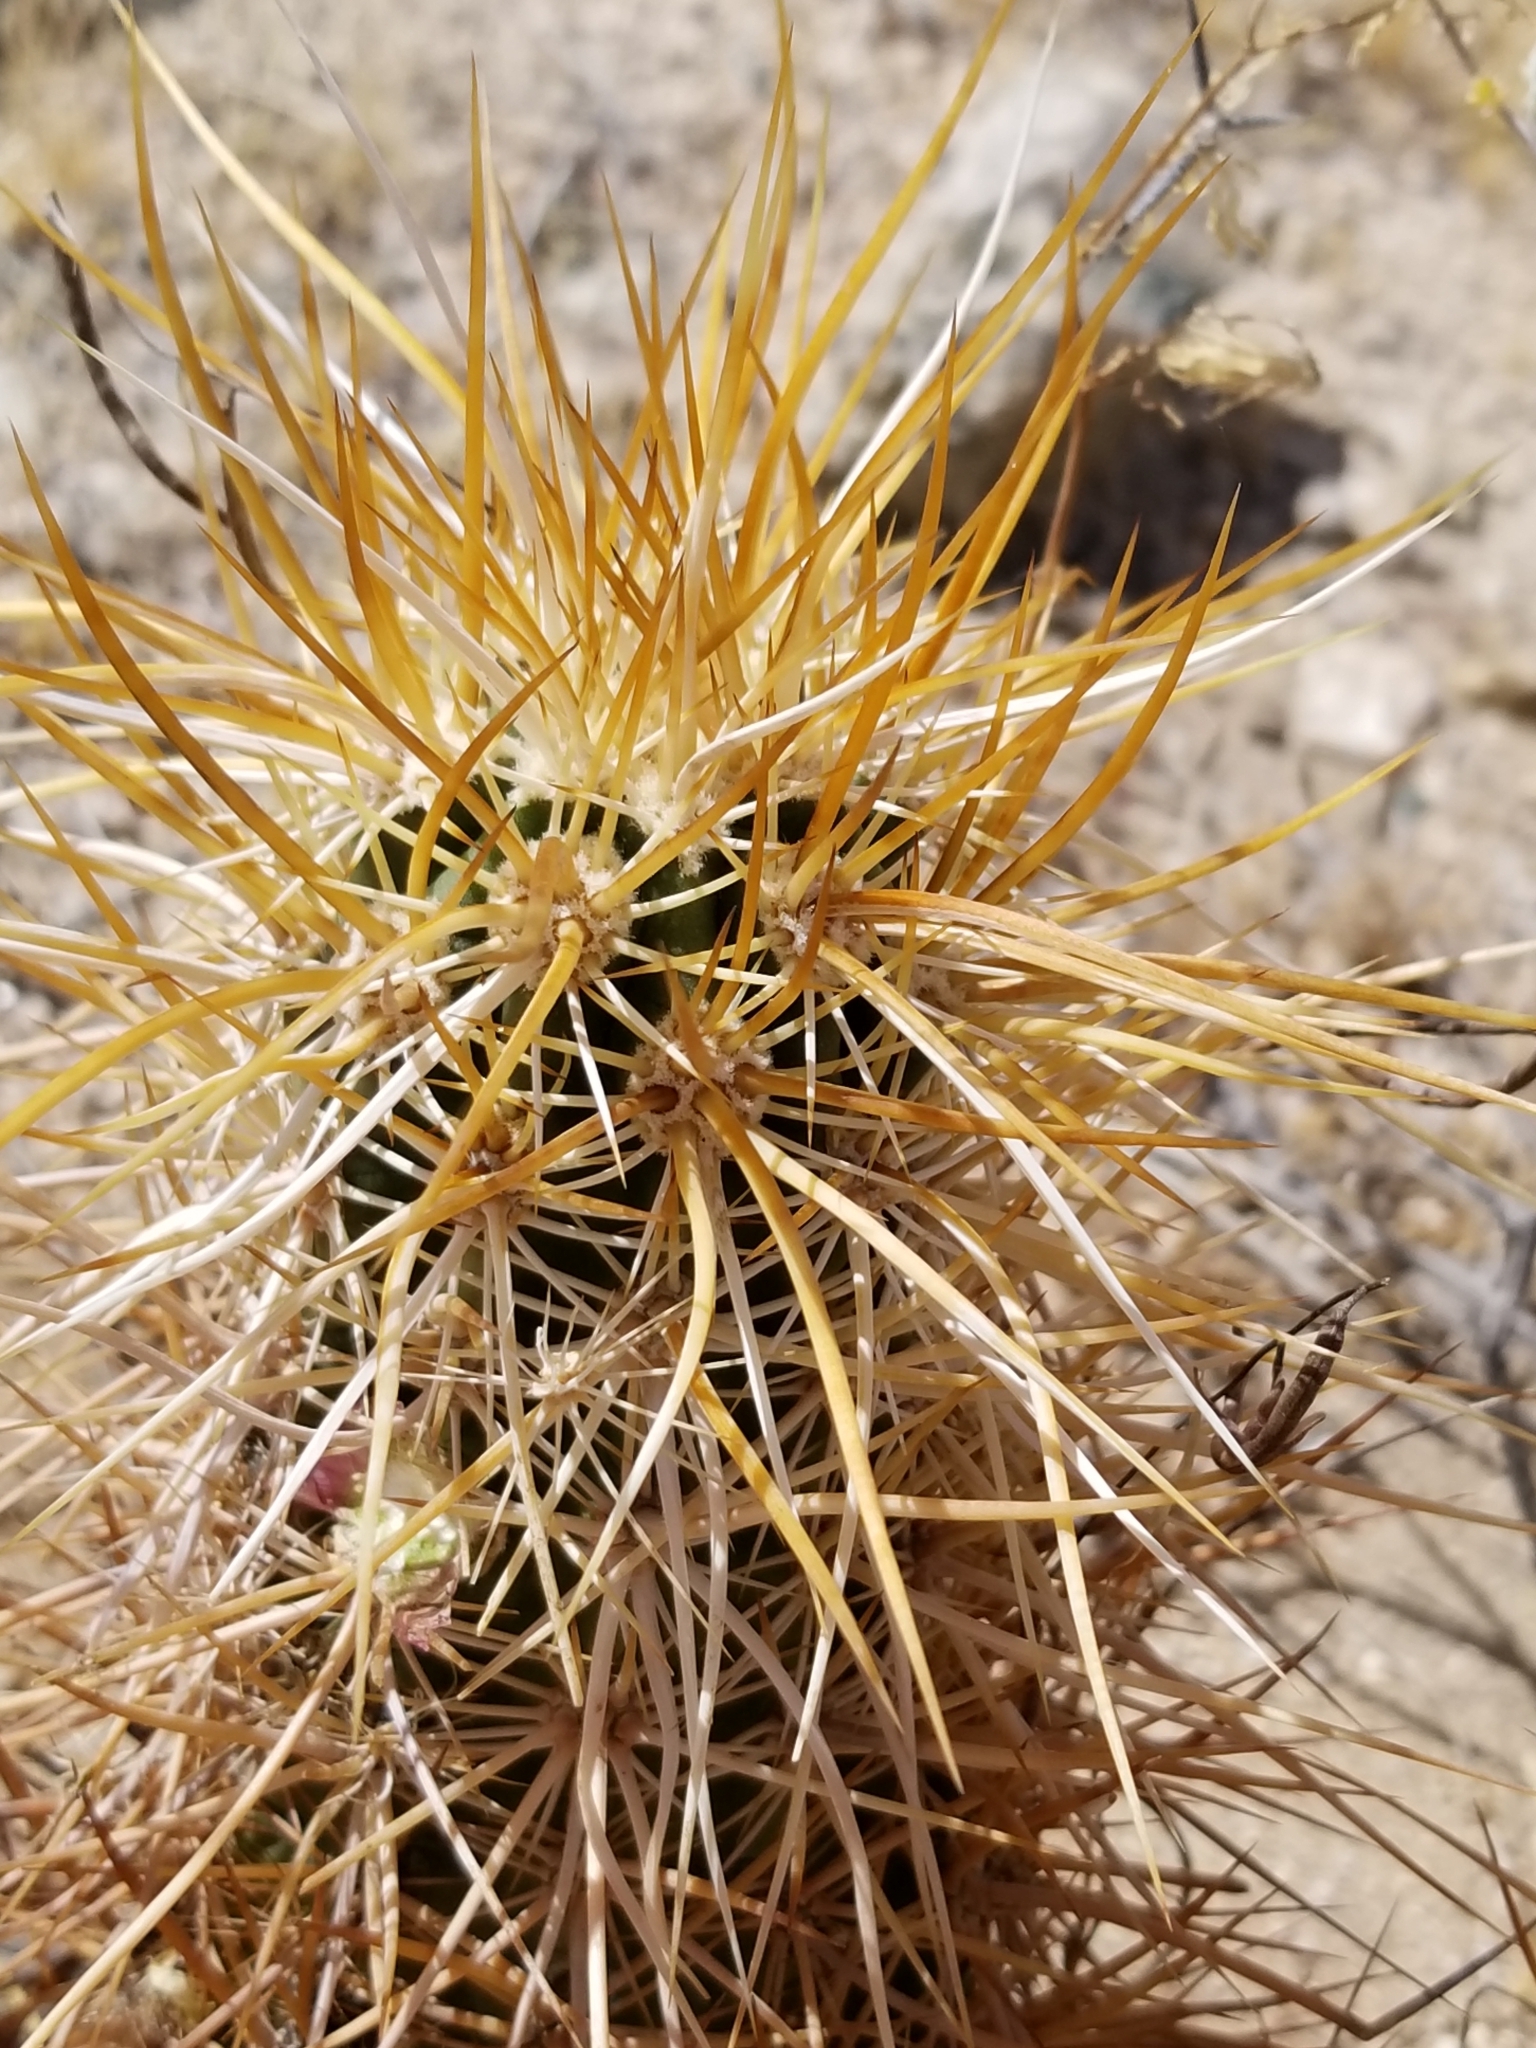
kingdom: Plantae
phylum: Tracheophyta
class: Magnoliopsida
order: Caryophyllales
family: Cactaceae
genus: Echinocereus
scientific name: Echinocereus engelmannii
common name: Engelmann's hedgehog cactus
